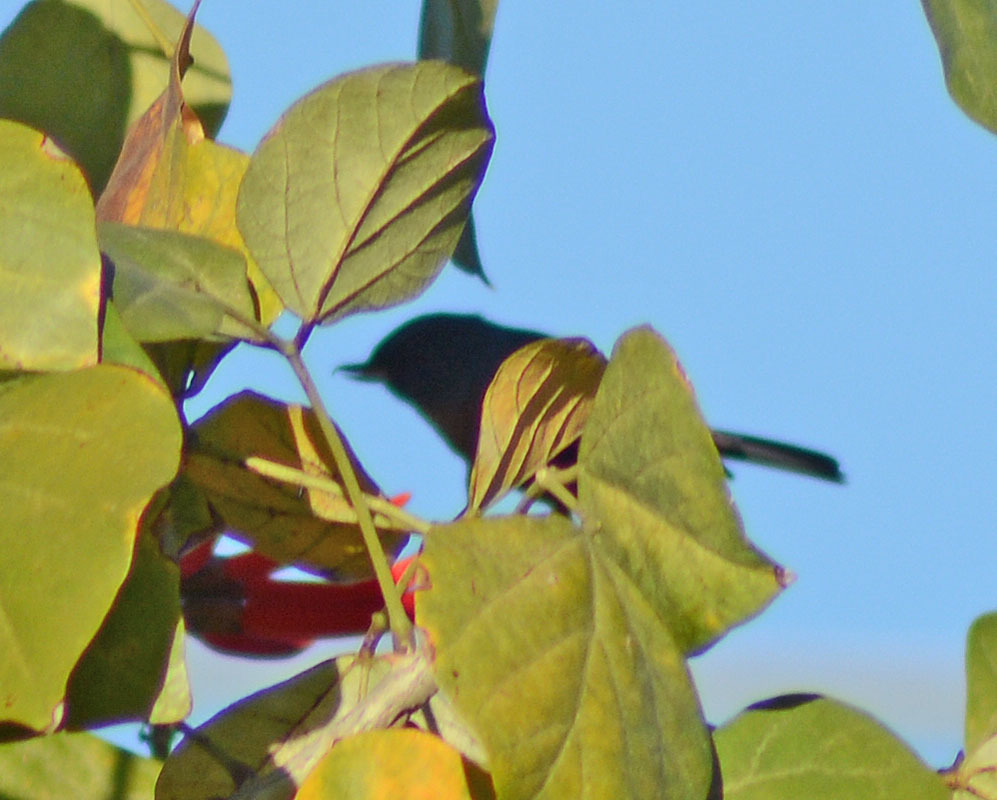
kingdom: Animalia
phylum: Chordata
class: Aves
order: Passeriformes
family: Thraupidae
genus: Diglossa
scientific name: Diglossa baritula
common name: Cinnamon-bellied flowerpiercer
